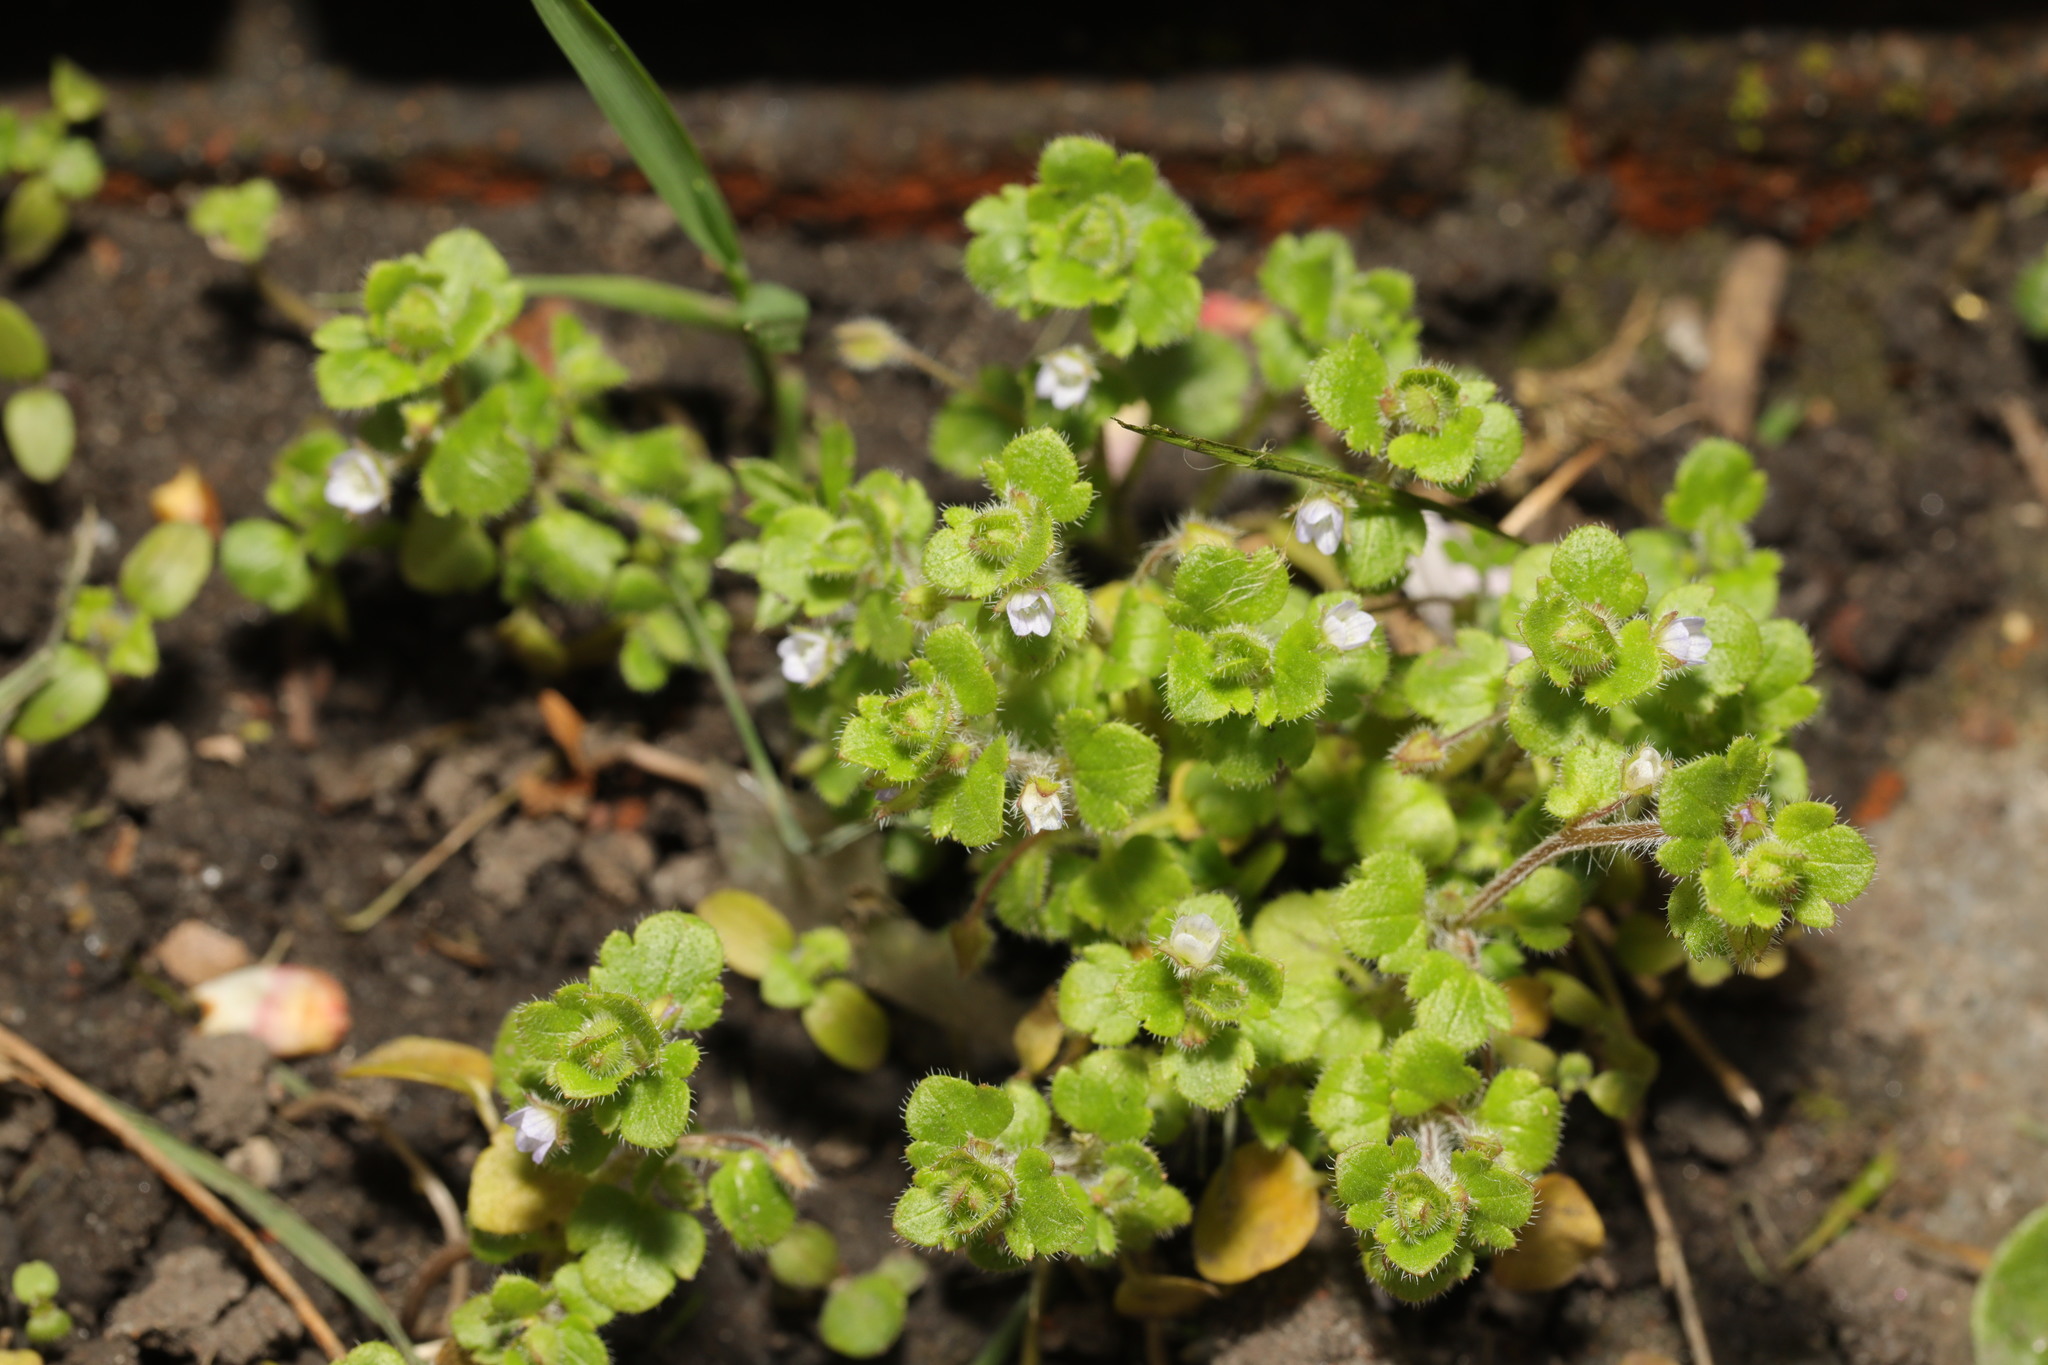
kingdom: Plantae
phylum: Tracheophyta
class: Magnoliopsida
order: Lamiales
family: Plantaginaceae
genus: Veronica
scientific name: Veronica sublobata
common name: False ivy-leaved speedwell
